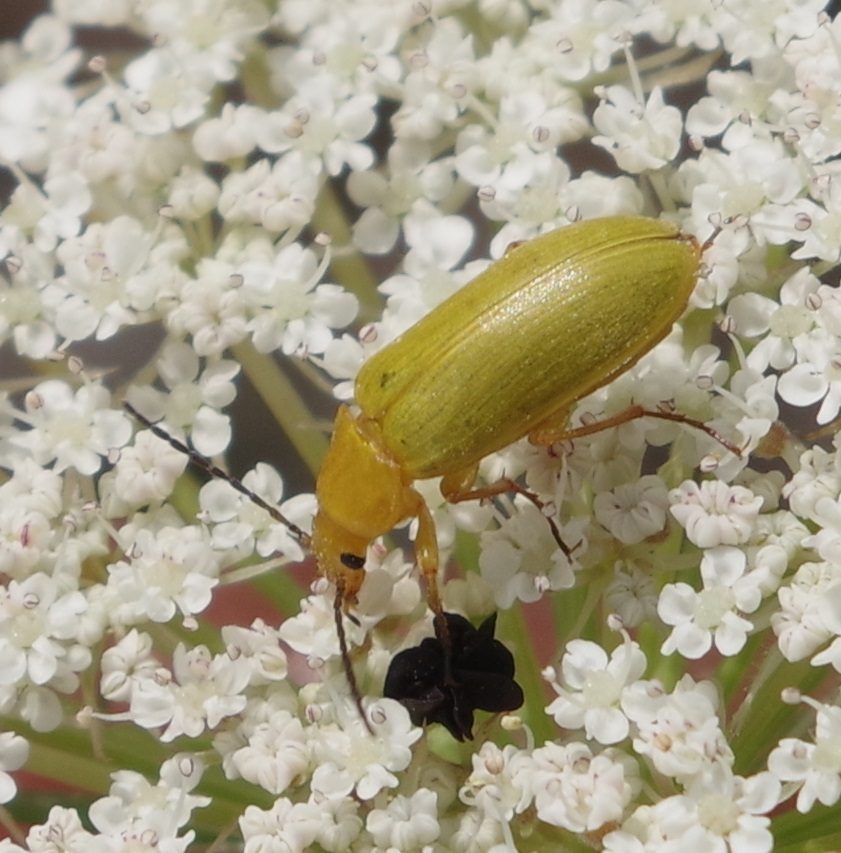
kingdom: Animalia
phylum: Arthropoda
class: Insecta
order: Coleoptera
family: Tenebrionidae
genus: Cteniopus
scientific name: Cteniopus sulphureus
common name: Sulphur beetle
